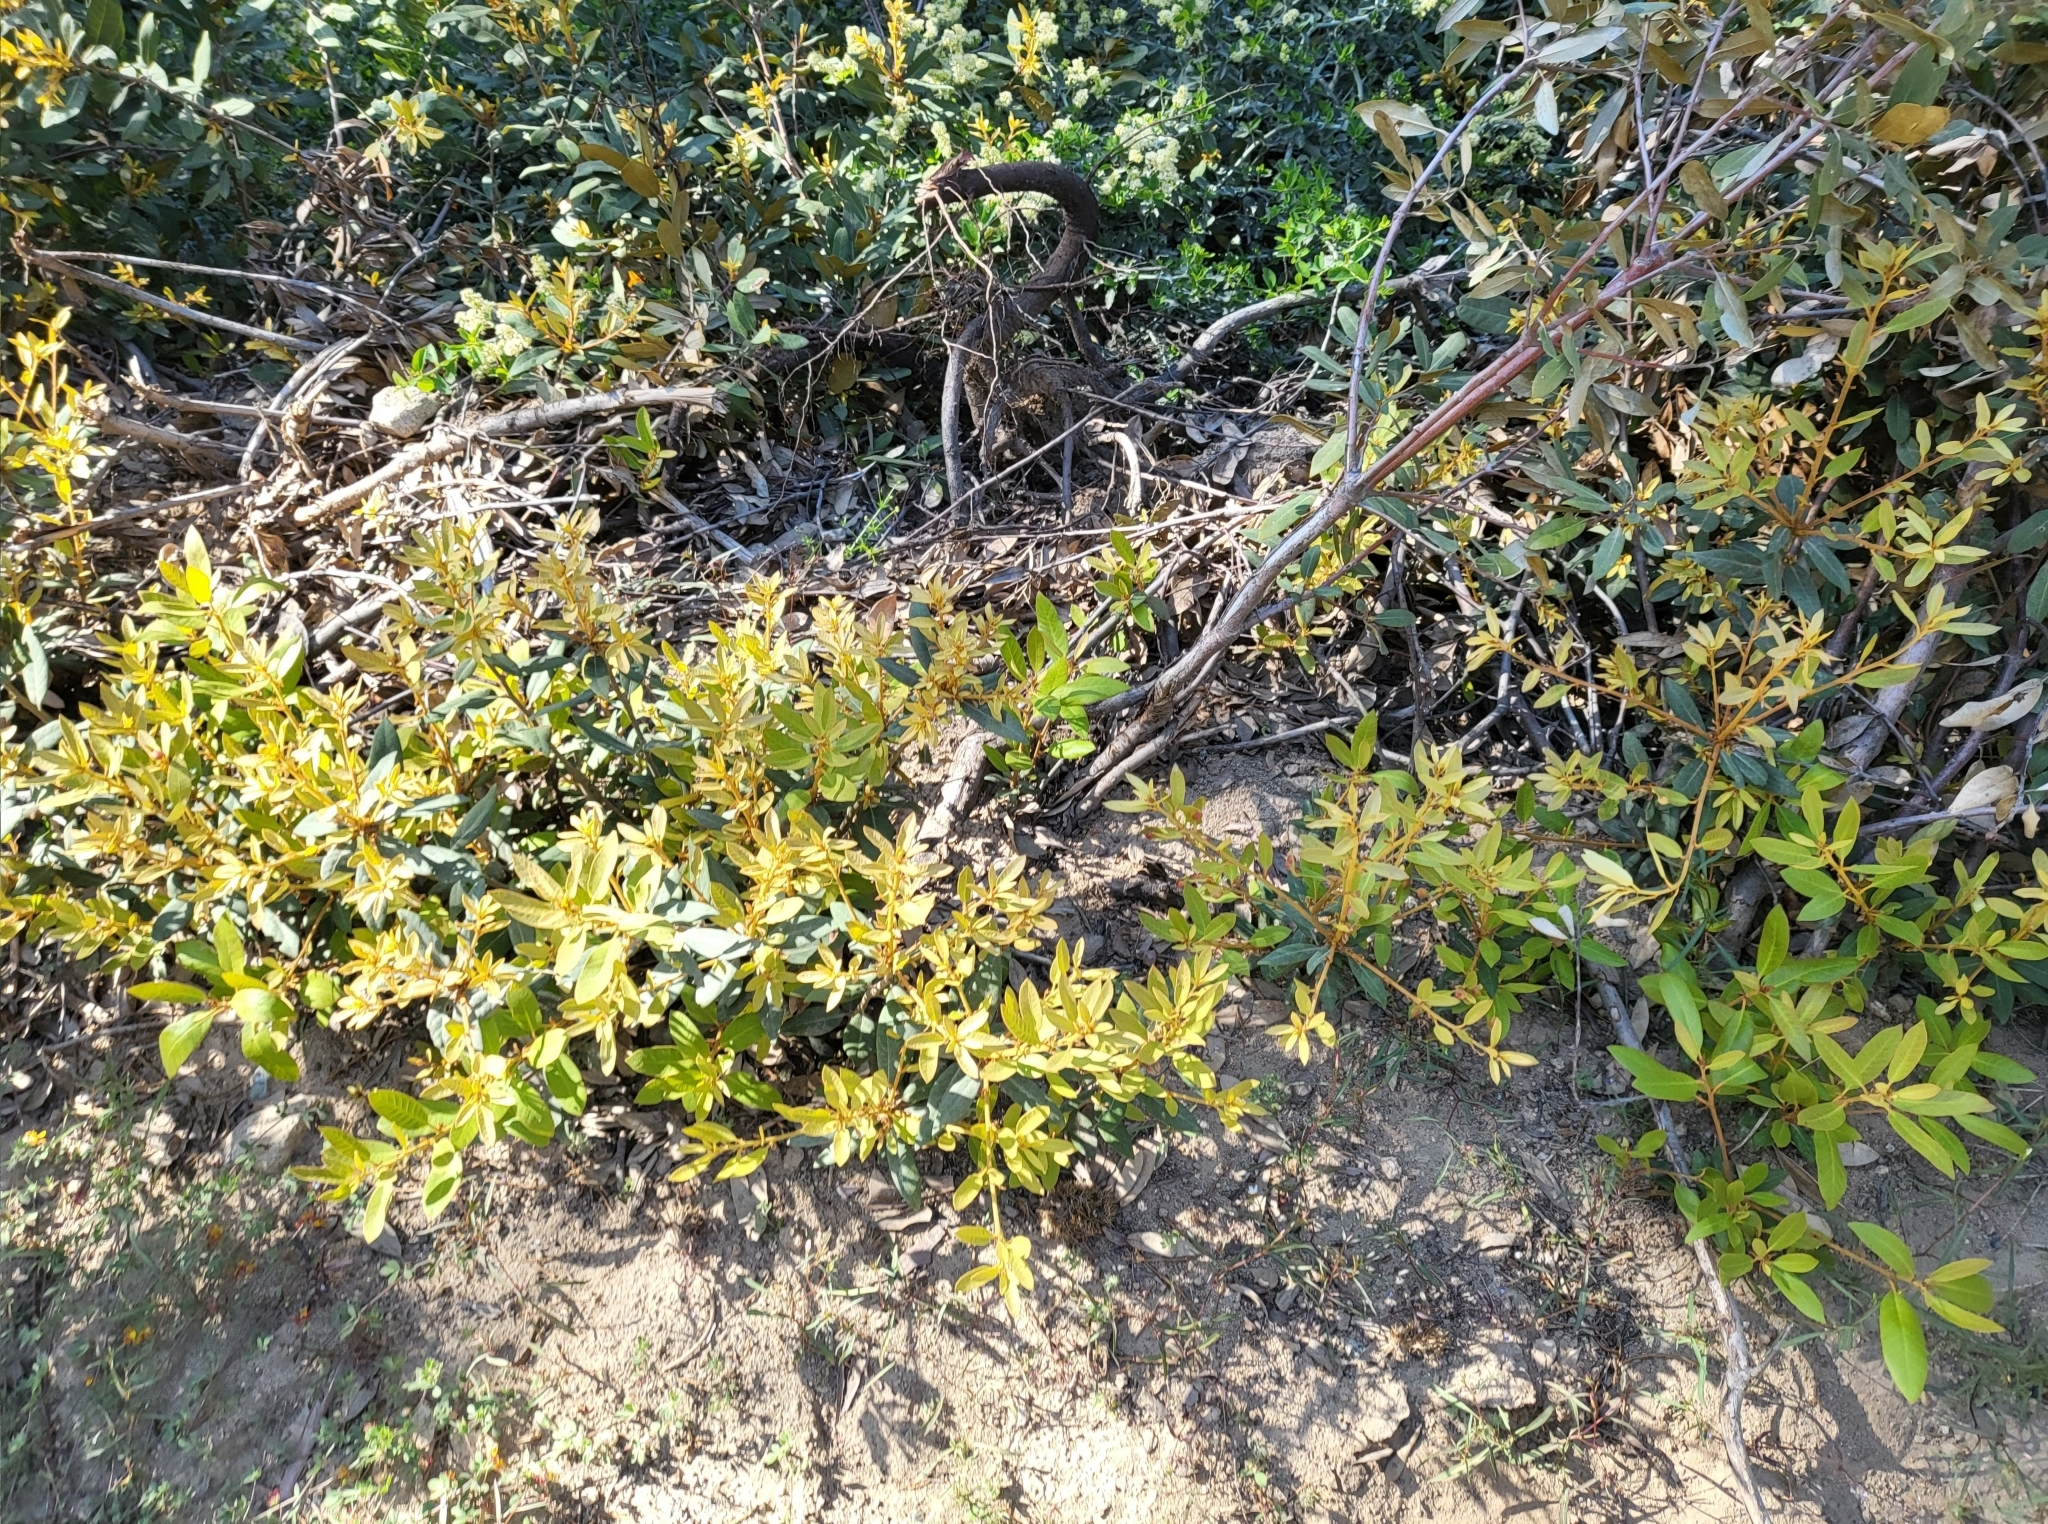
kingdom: Plantae
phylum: Tracheophyta
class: Magnoliopsida
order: Fagales
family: Fagaceae
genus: Chrysolepis
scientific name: Chrysolepis sempervirens
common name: Bush chinquapin
